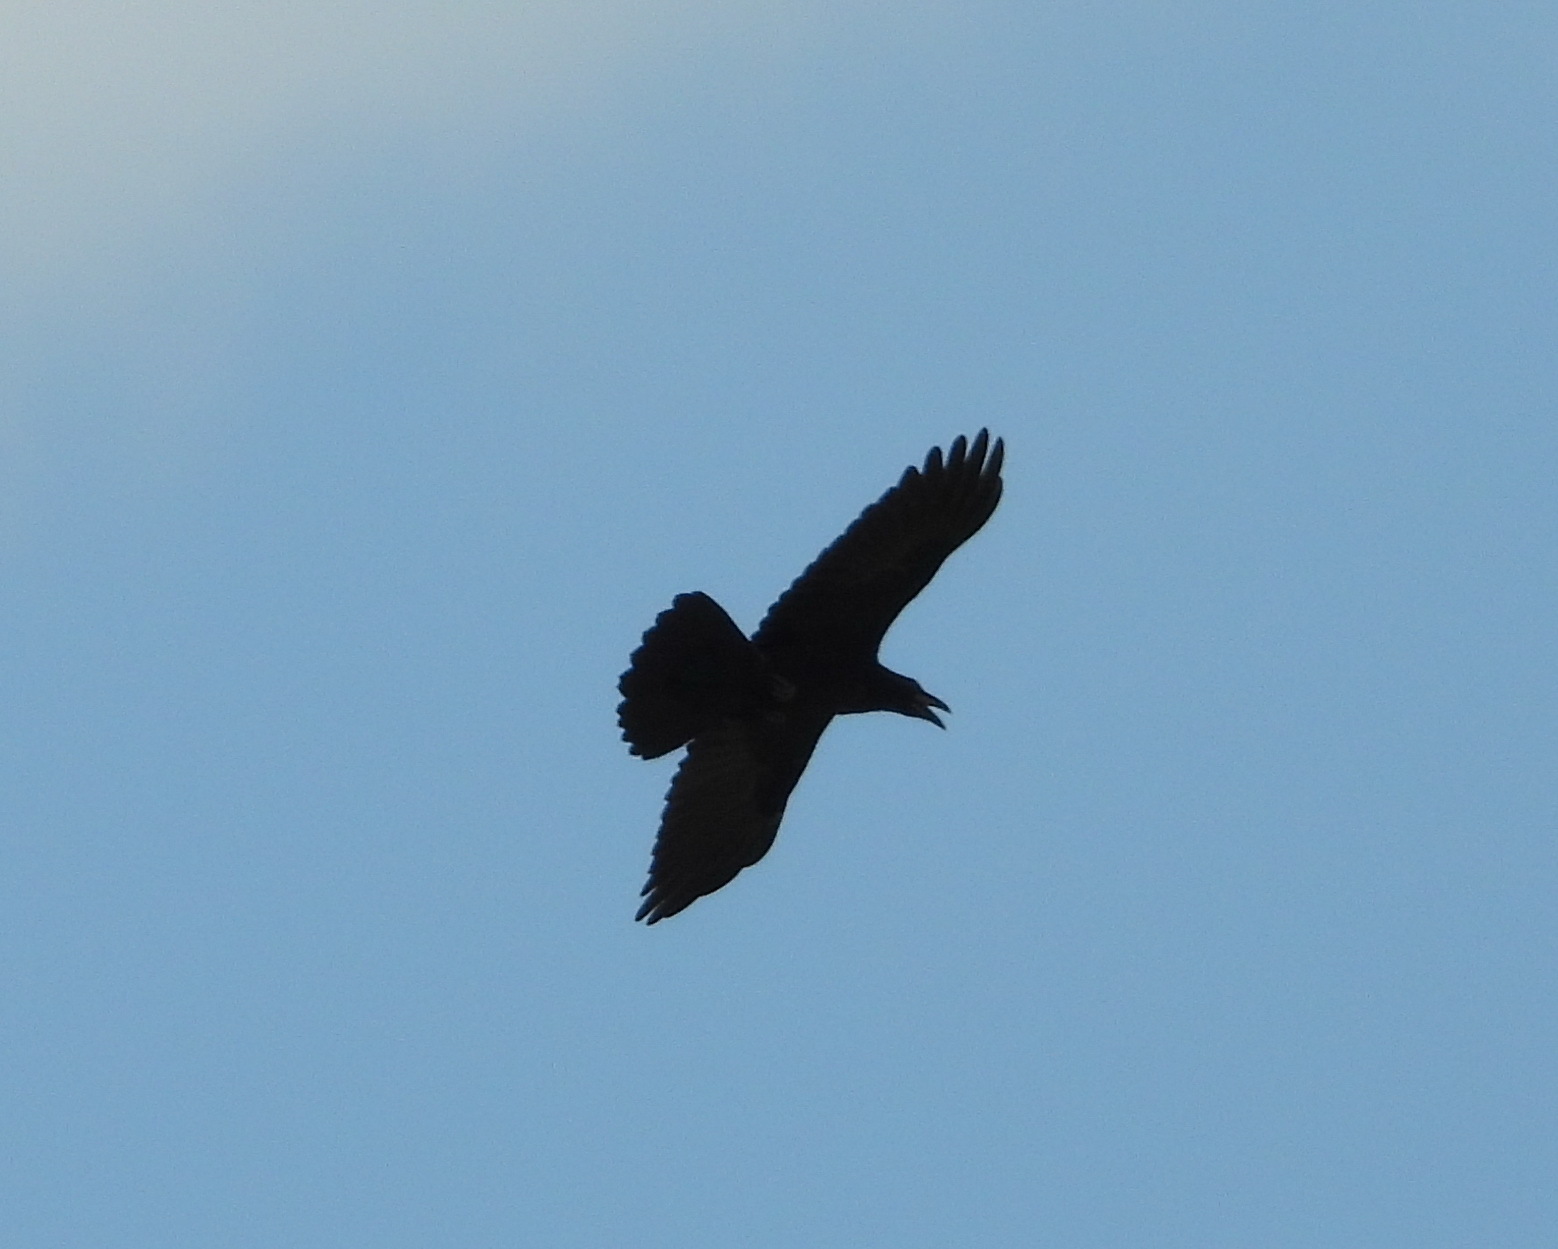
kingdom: Animalia
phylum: Chordata
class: Aves
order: Passeriformes
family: Corvidae
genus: Corvus
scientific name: Corvus corax
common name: Common raven
